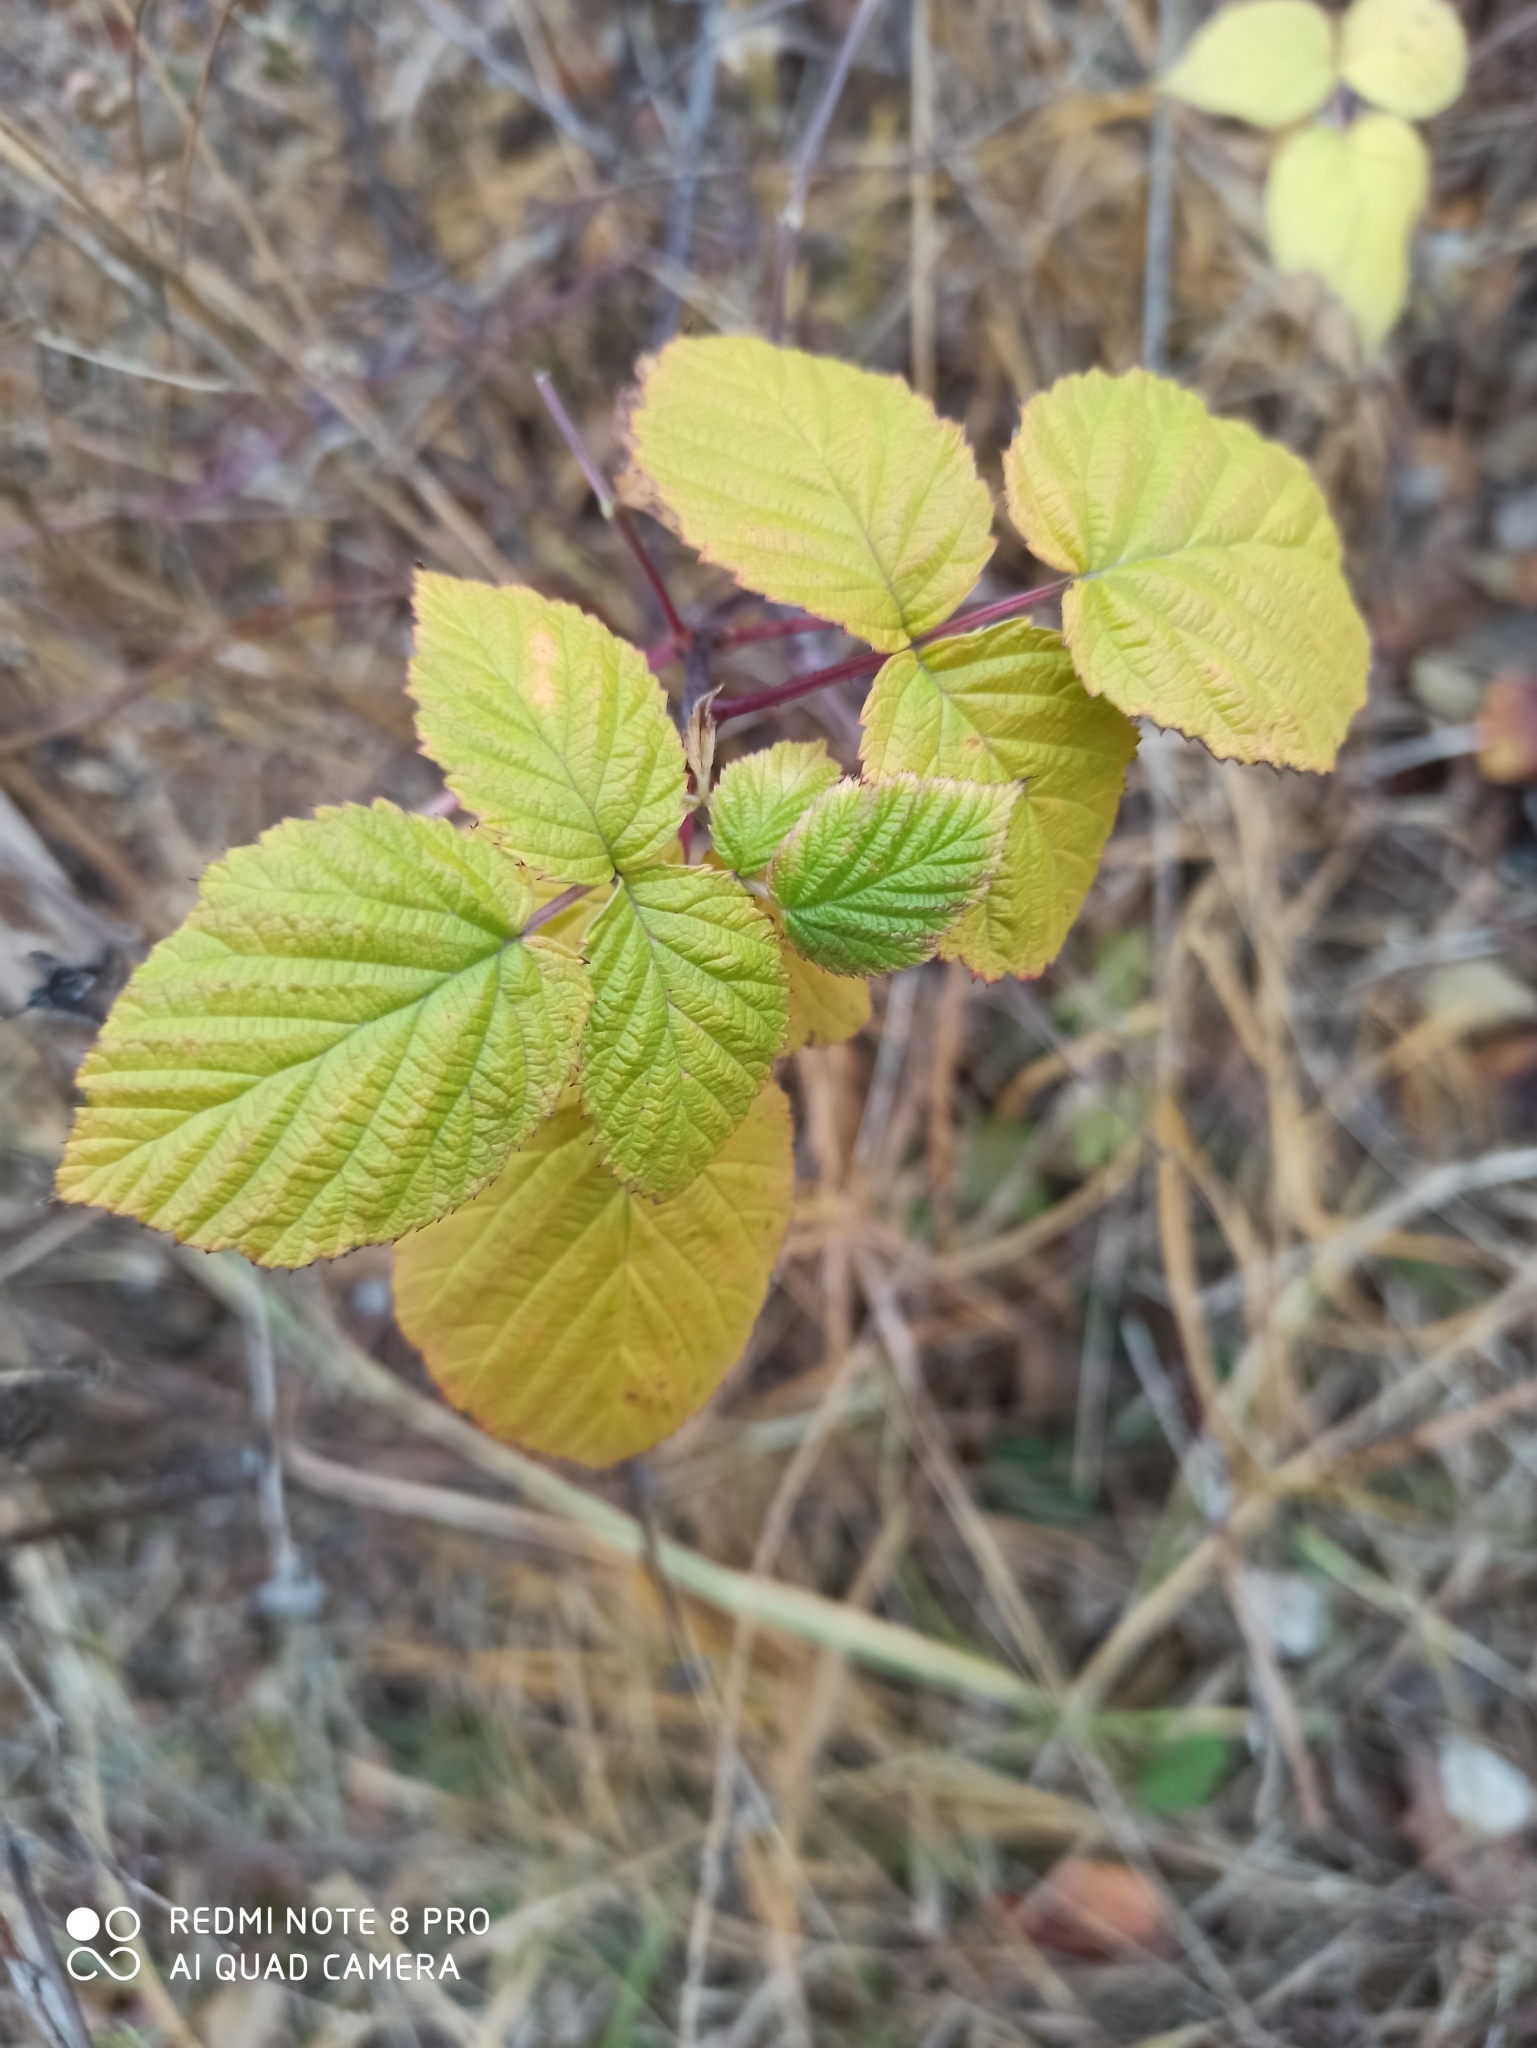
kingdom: Plantae
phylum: Tracheophyta
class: Magnoliopsida
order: Rosales
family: Rosaceae
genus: Rubus
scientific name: Rubus idaeus
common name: Raspberry
